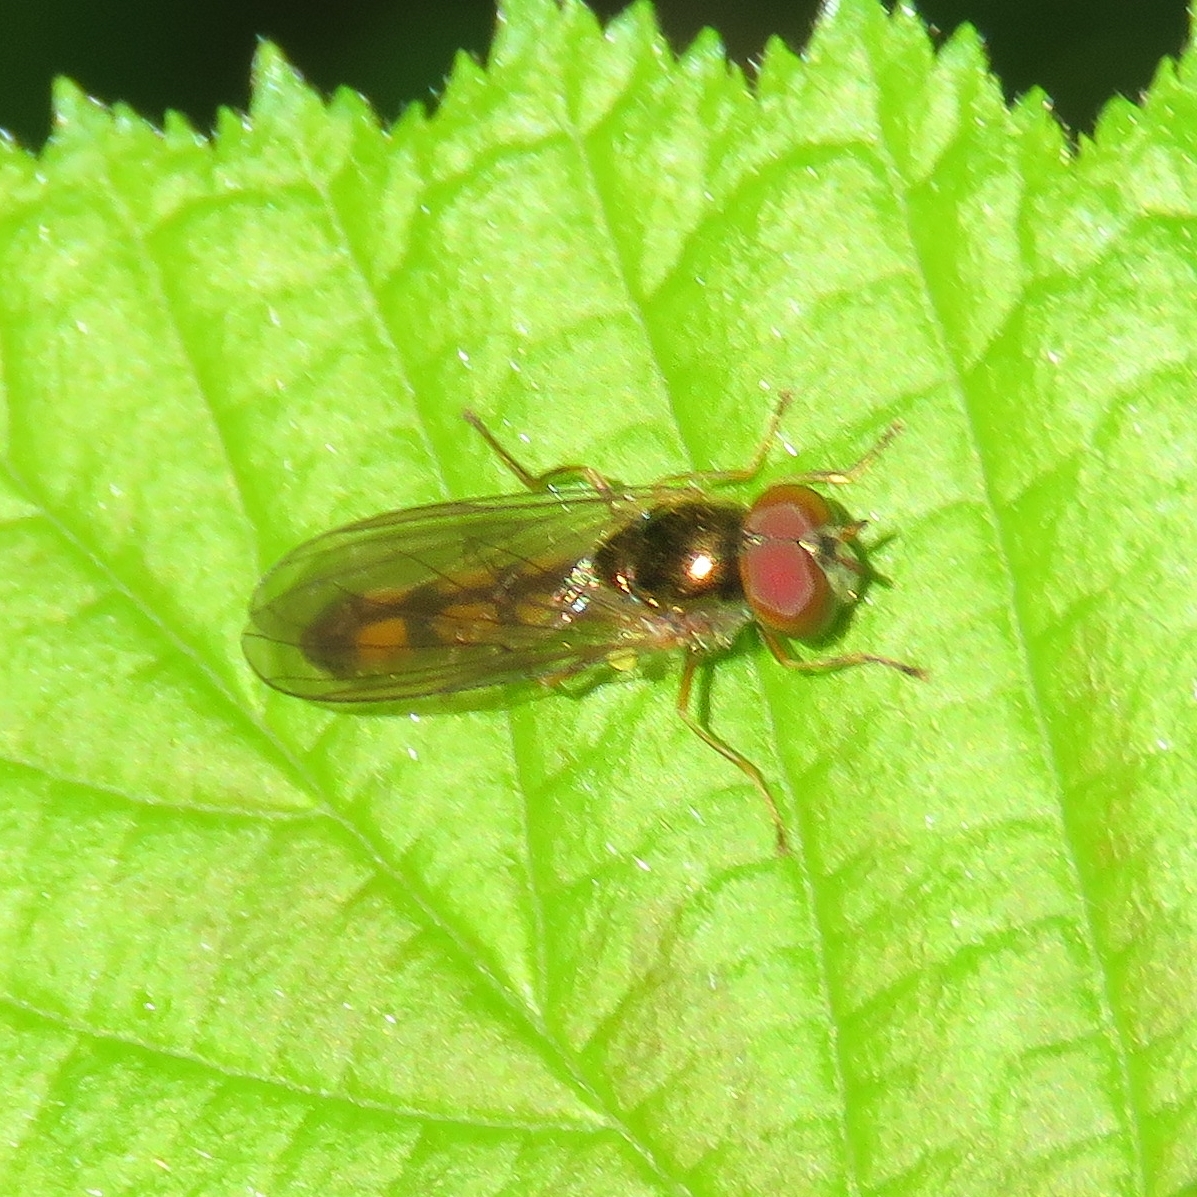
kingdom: Animalia
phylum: Arthropoda
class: Insecta
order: Diptera
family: Syrphidae
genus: Melanostoma
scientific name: Melanostoma scalare
